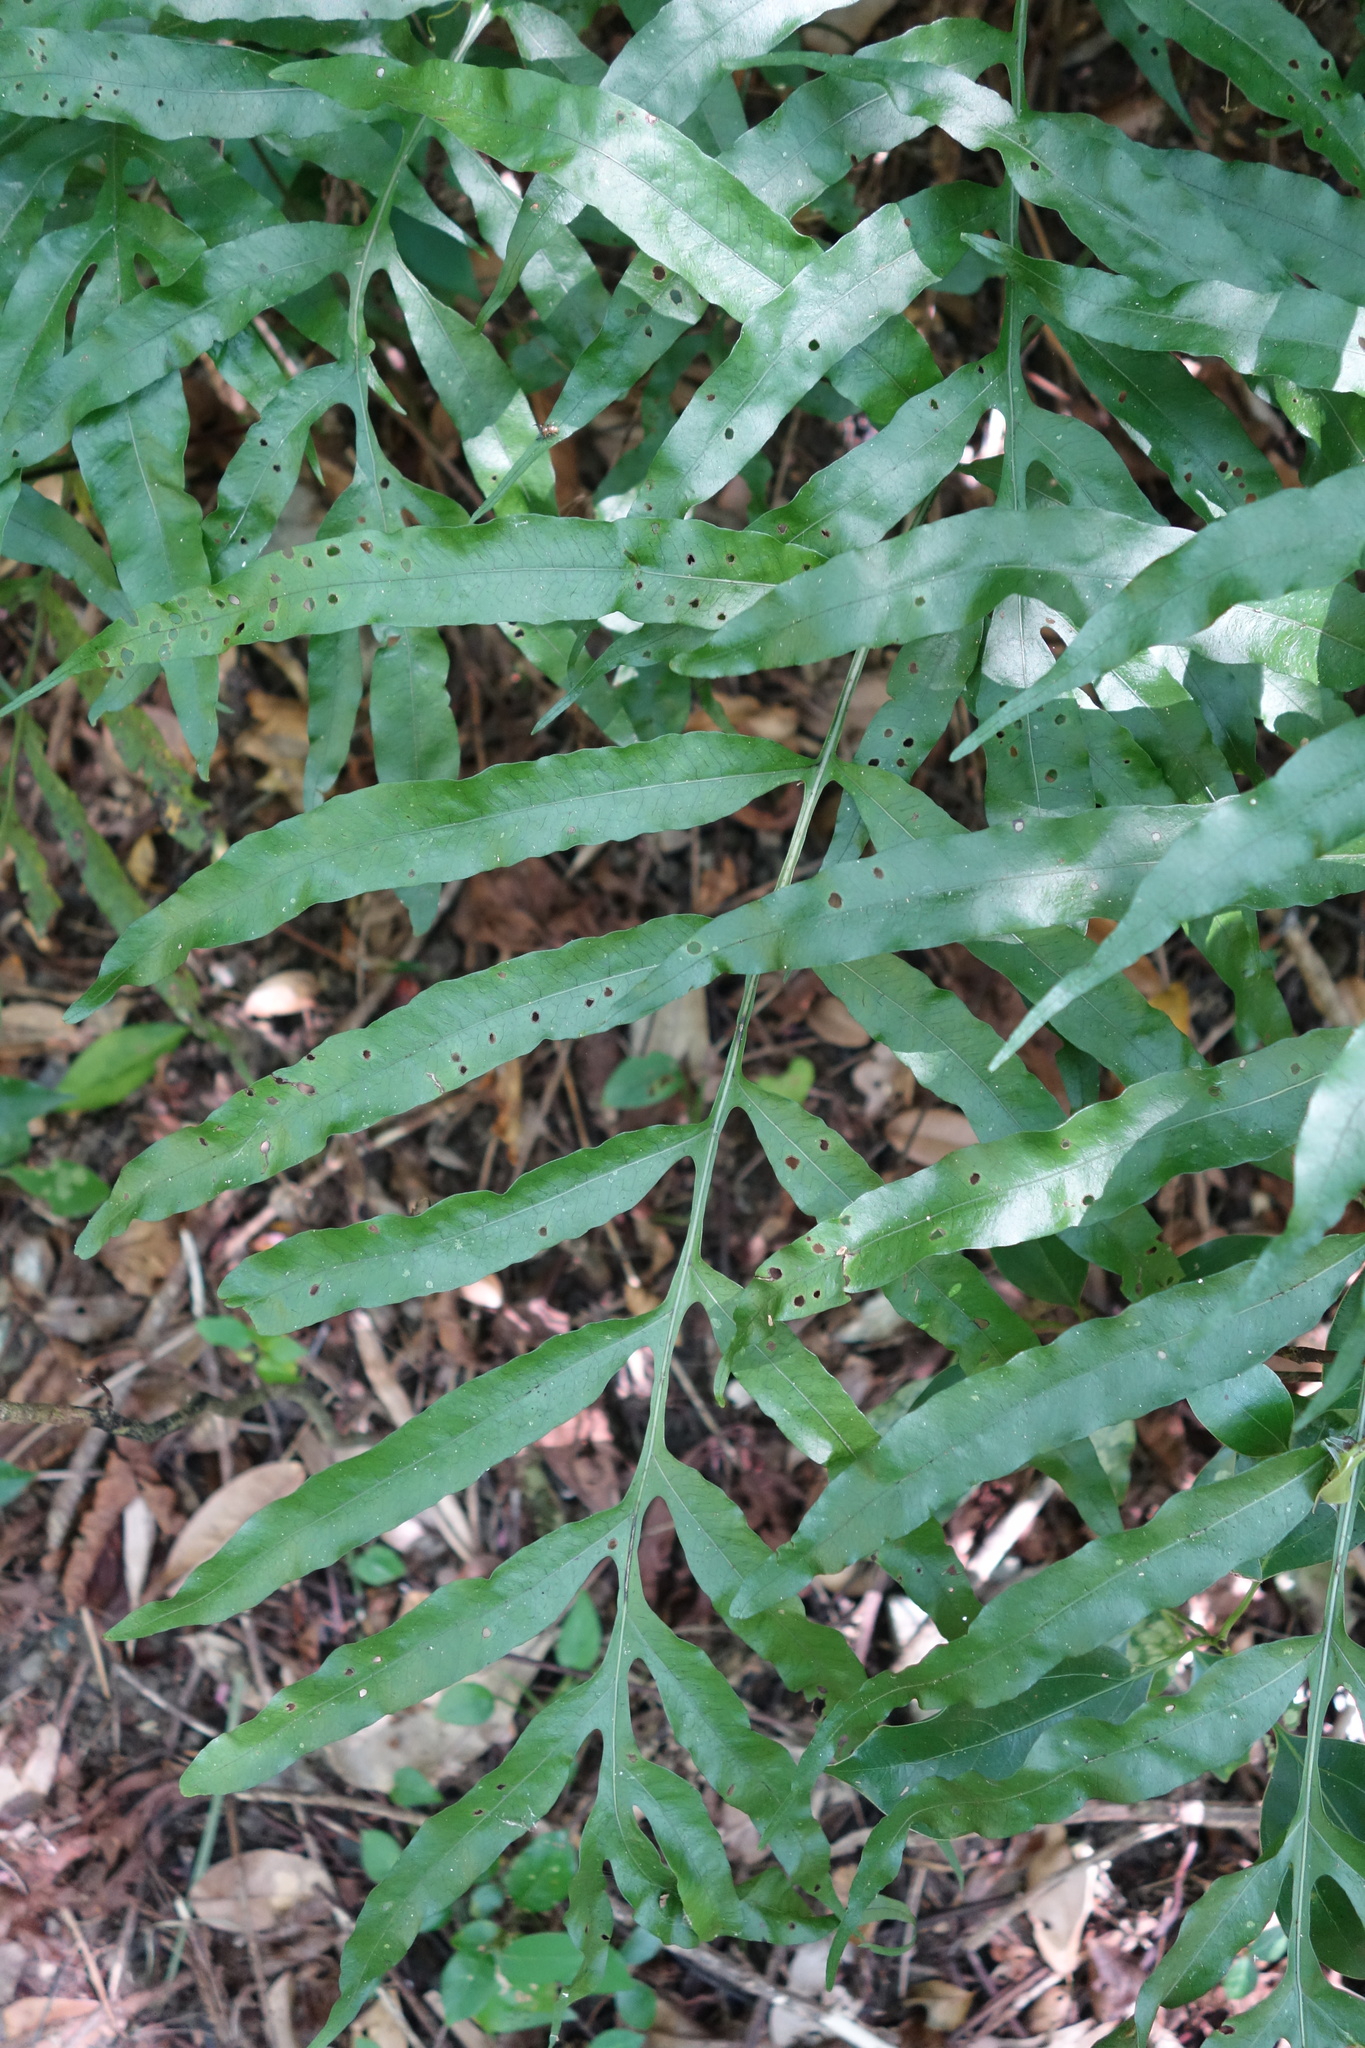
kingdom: Plantae
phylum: Tracheophyta
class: Polypodiopsida
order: Polypodiales
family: Polypodiaceae
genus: Leptochilus
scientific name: Leptochilus ellipticus
